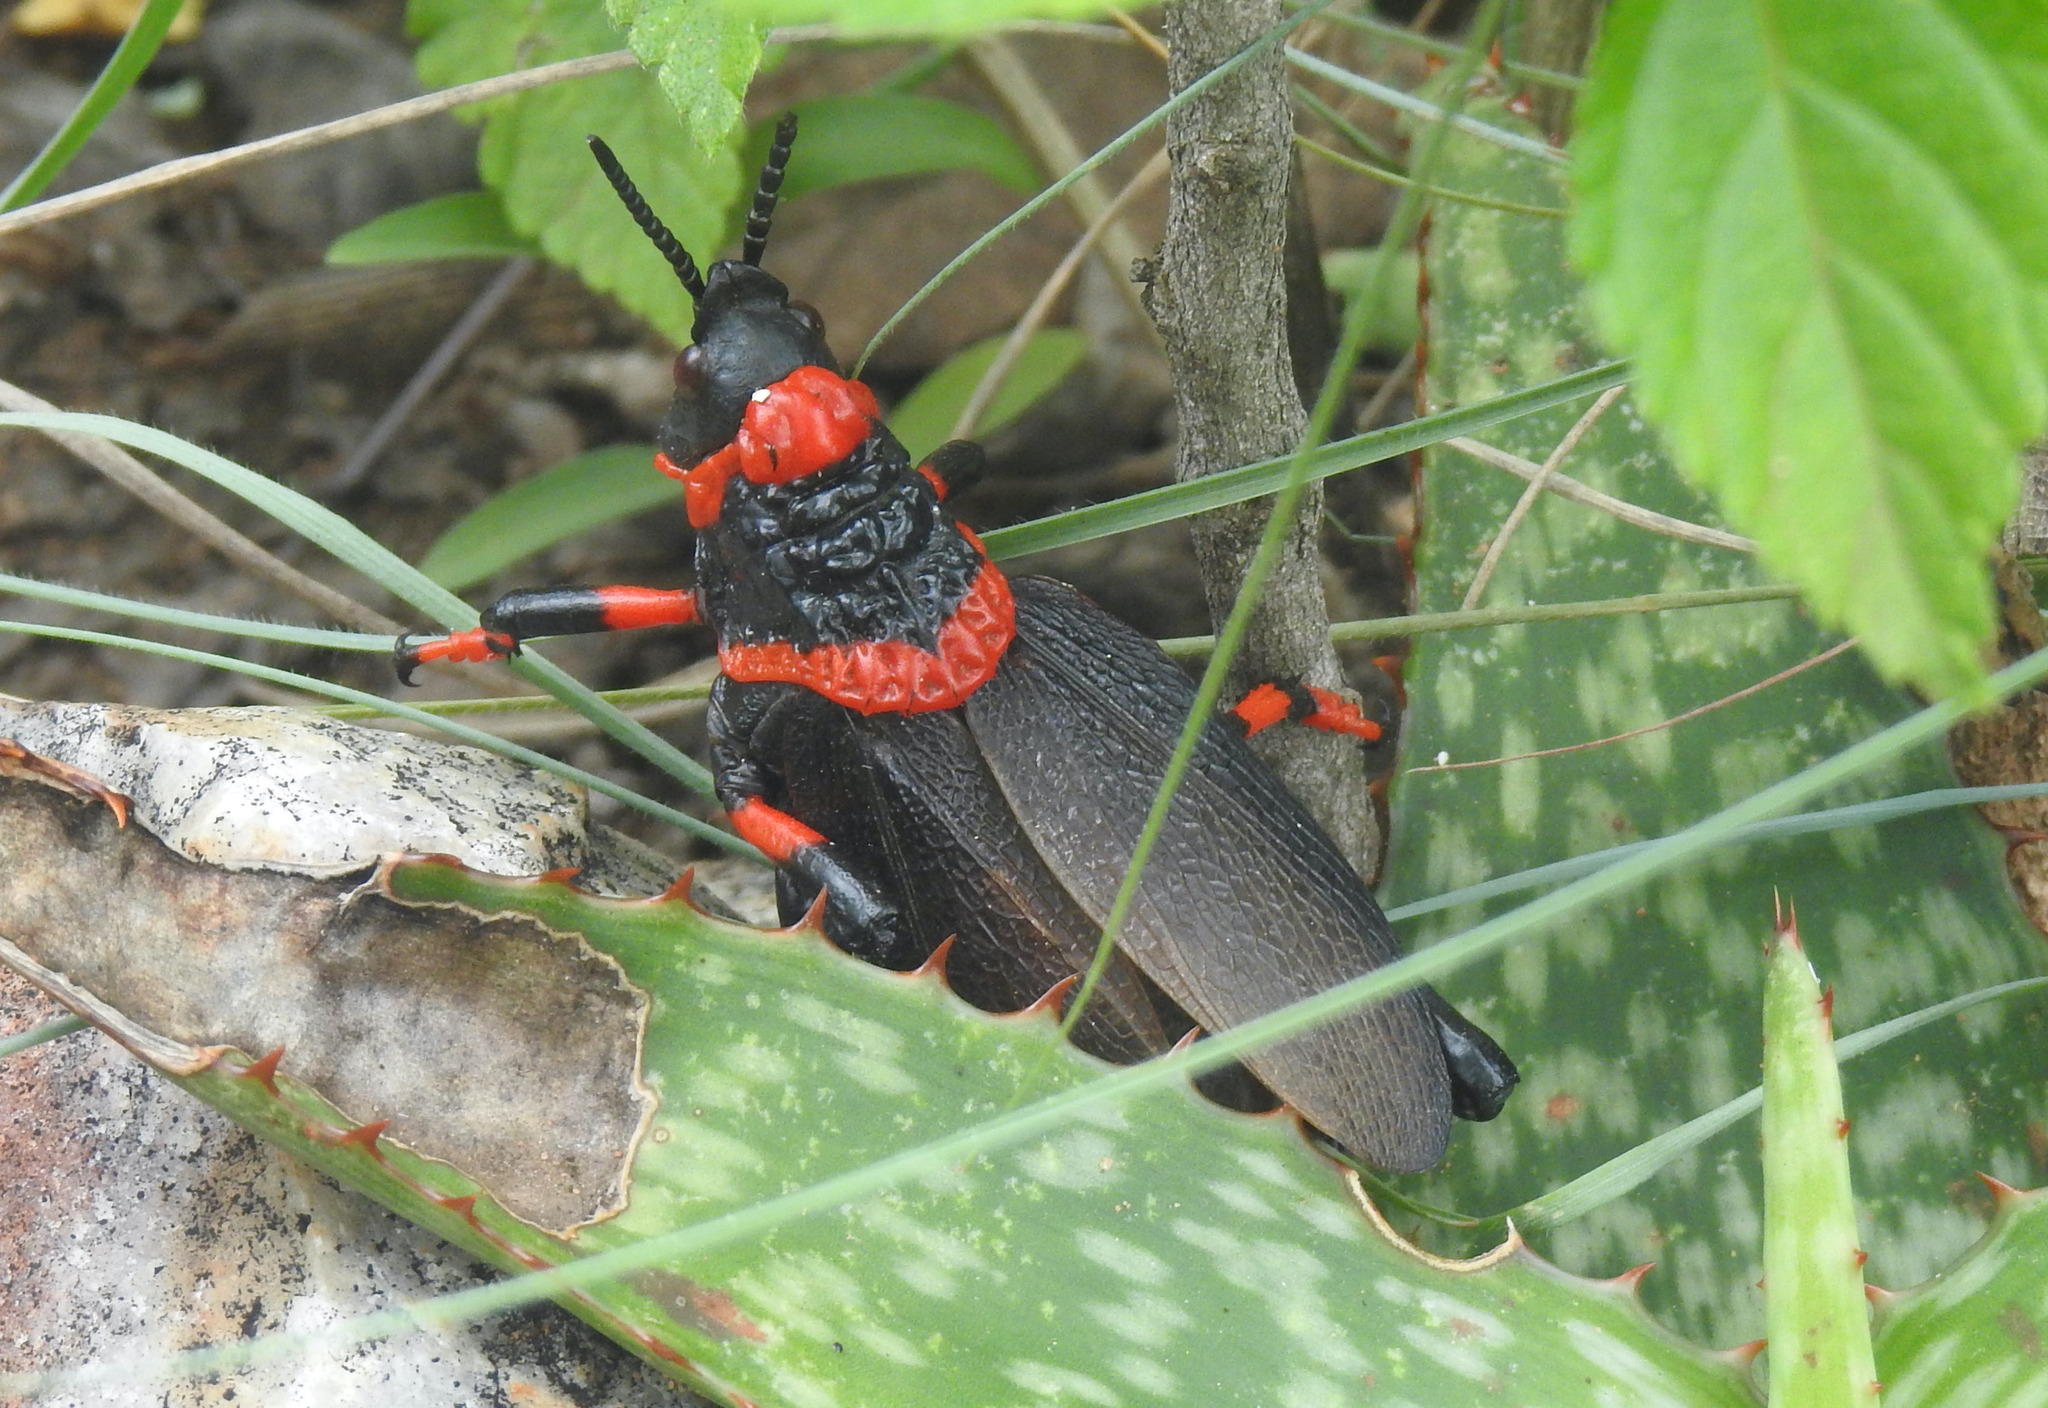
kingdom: Animalia
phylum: Arthropoda
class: Insecta
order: Orthoptera
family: Pyrgomorphidae
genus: Dictyophorus
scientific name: Dictyophorus spumans
